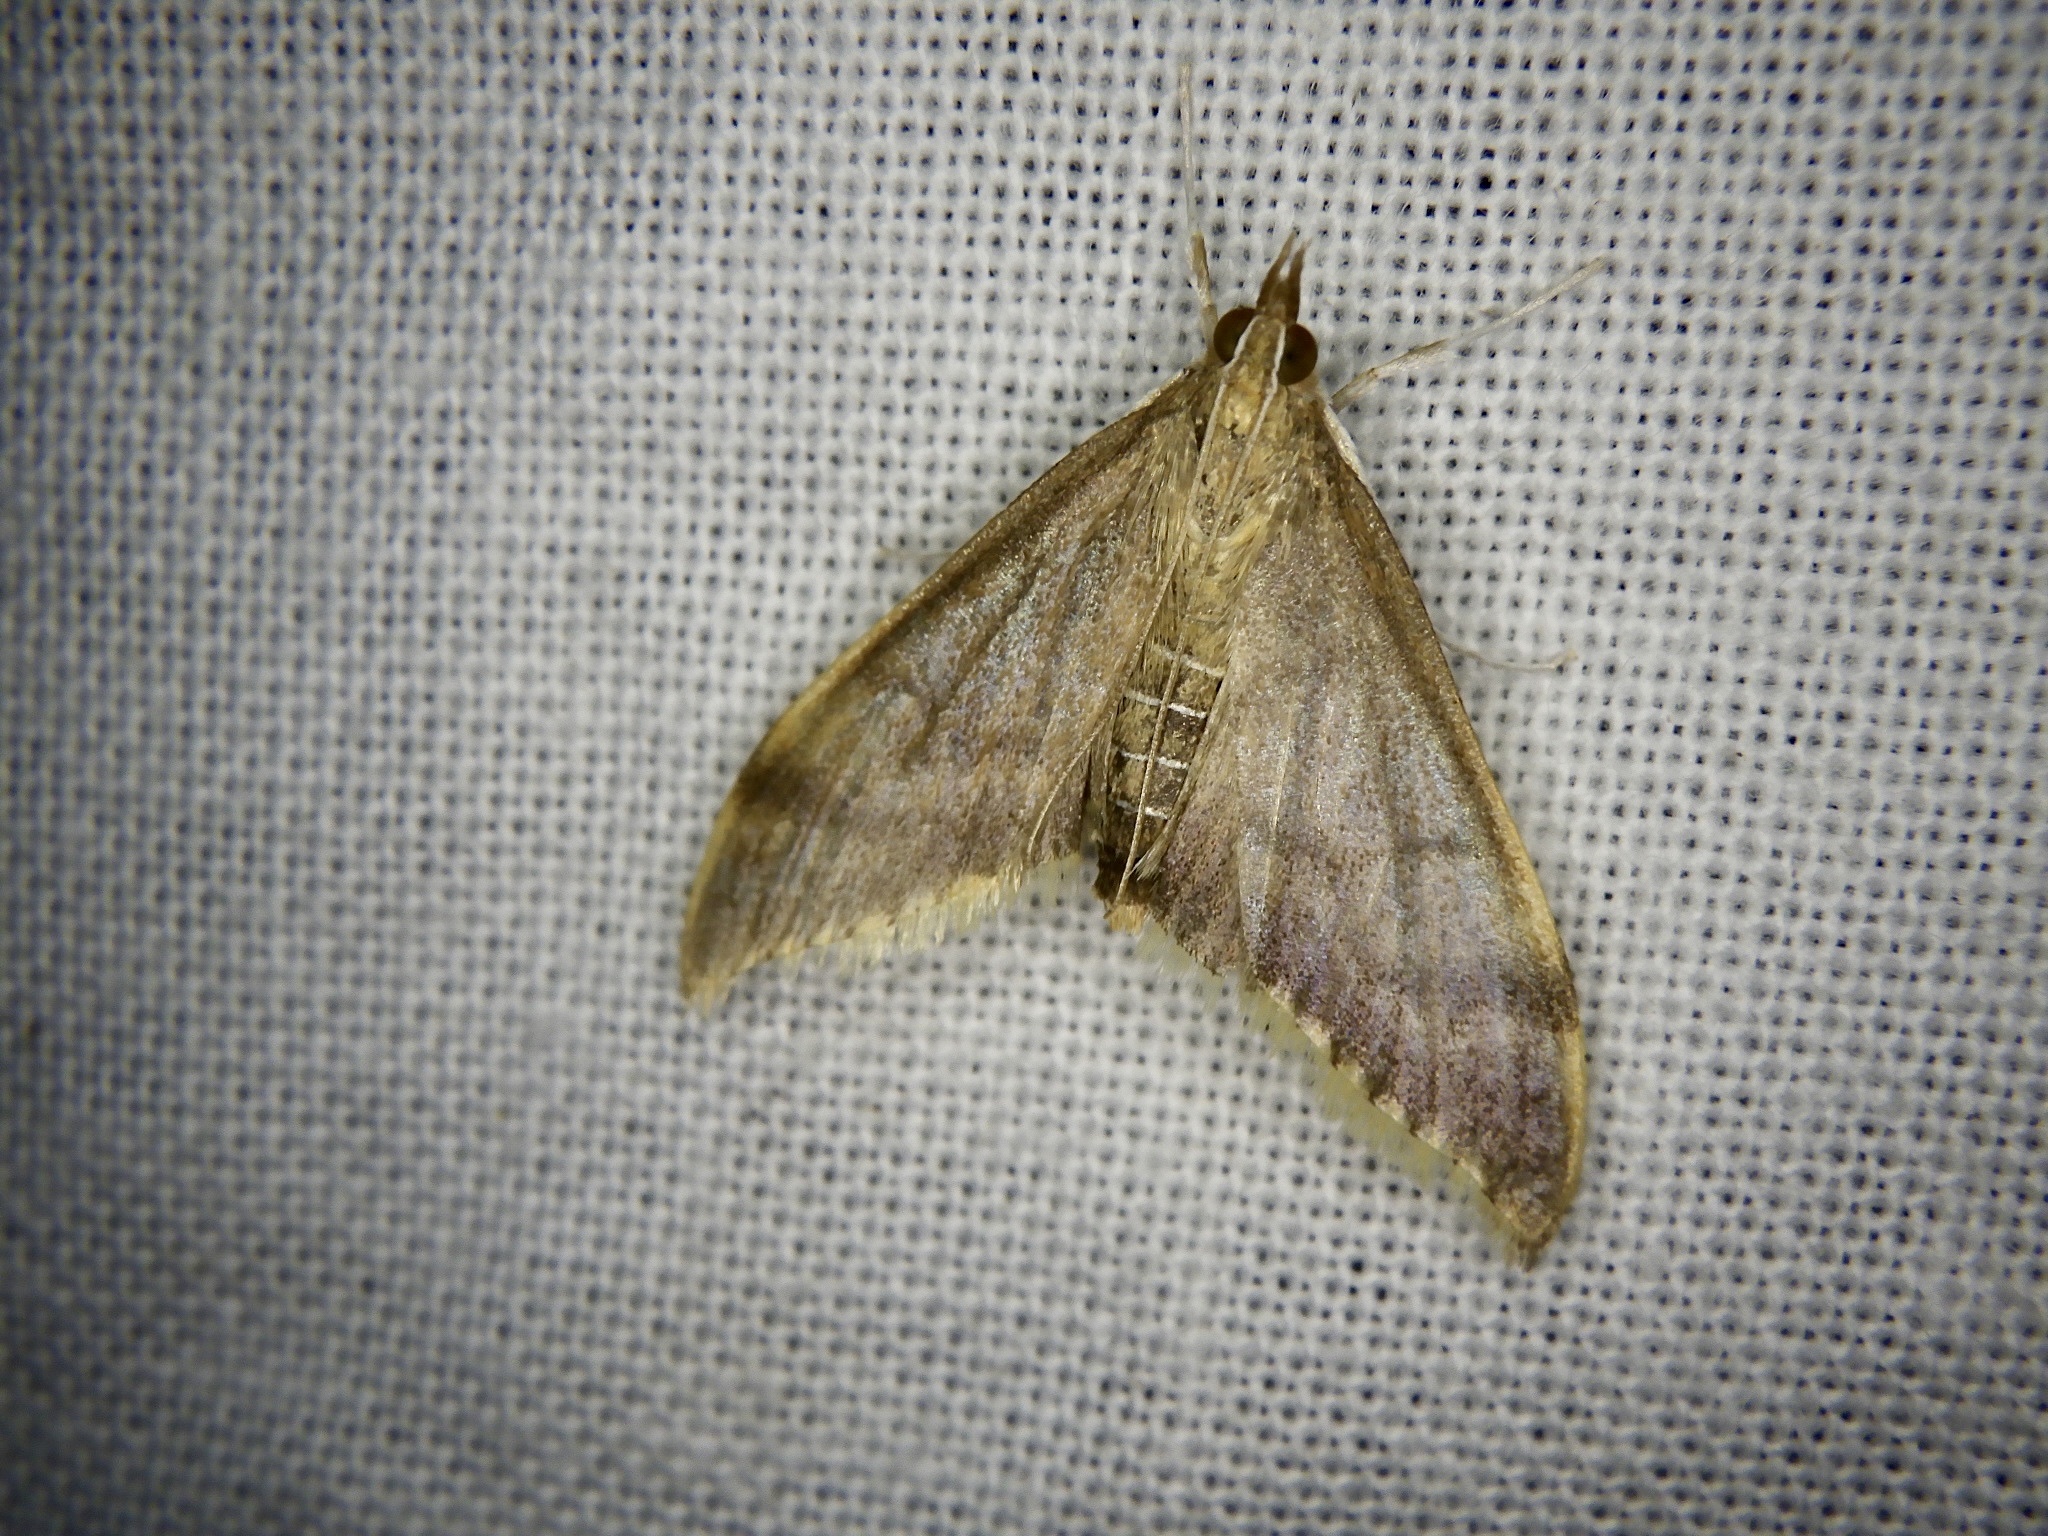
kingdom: Animalia
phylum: Arthropoda
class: Insecta
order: Lepidoptera
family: Crambidae
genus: Circobotys
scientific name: Circobotys nycterina
